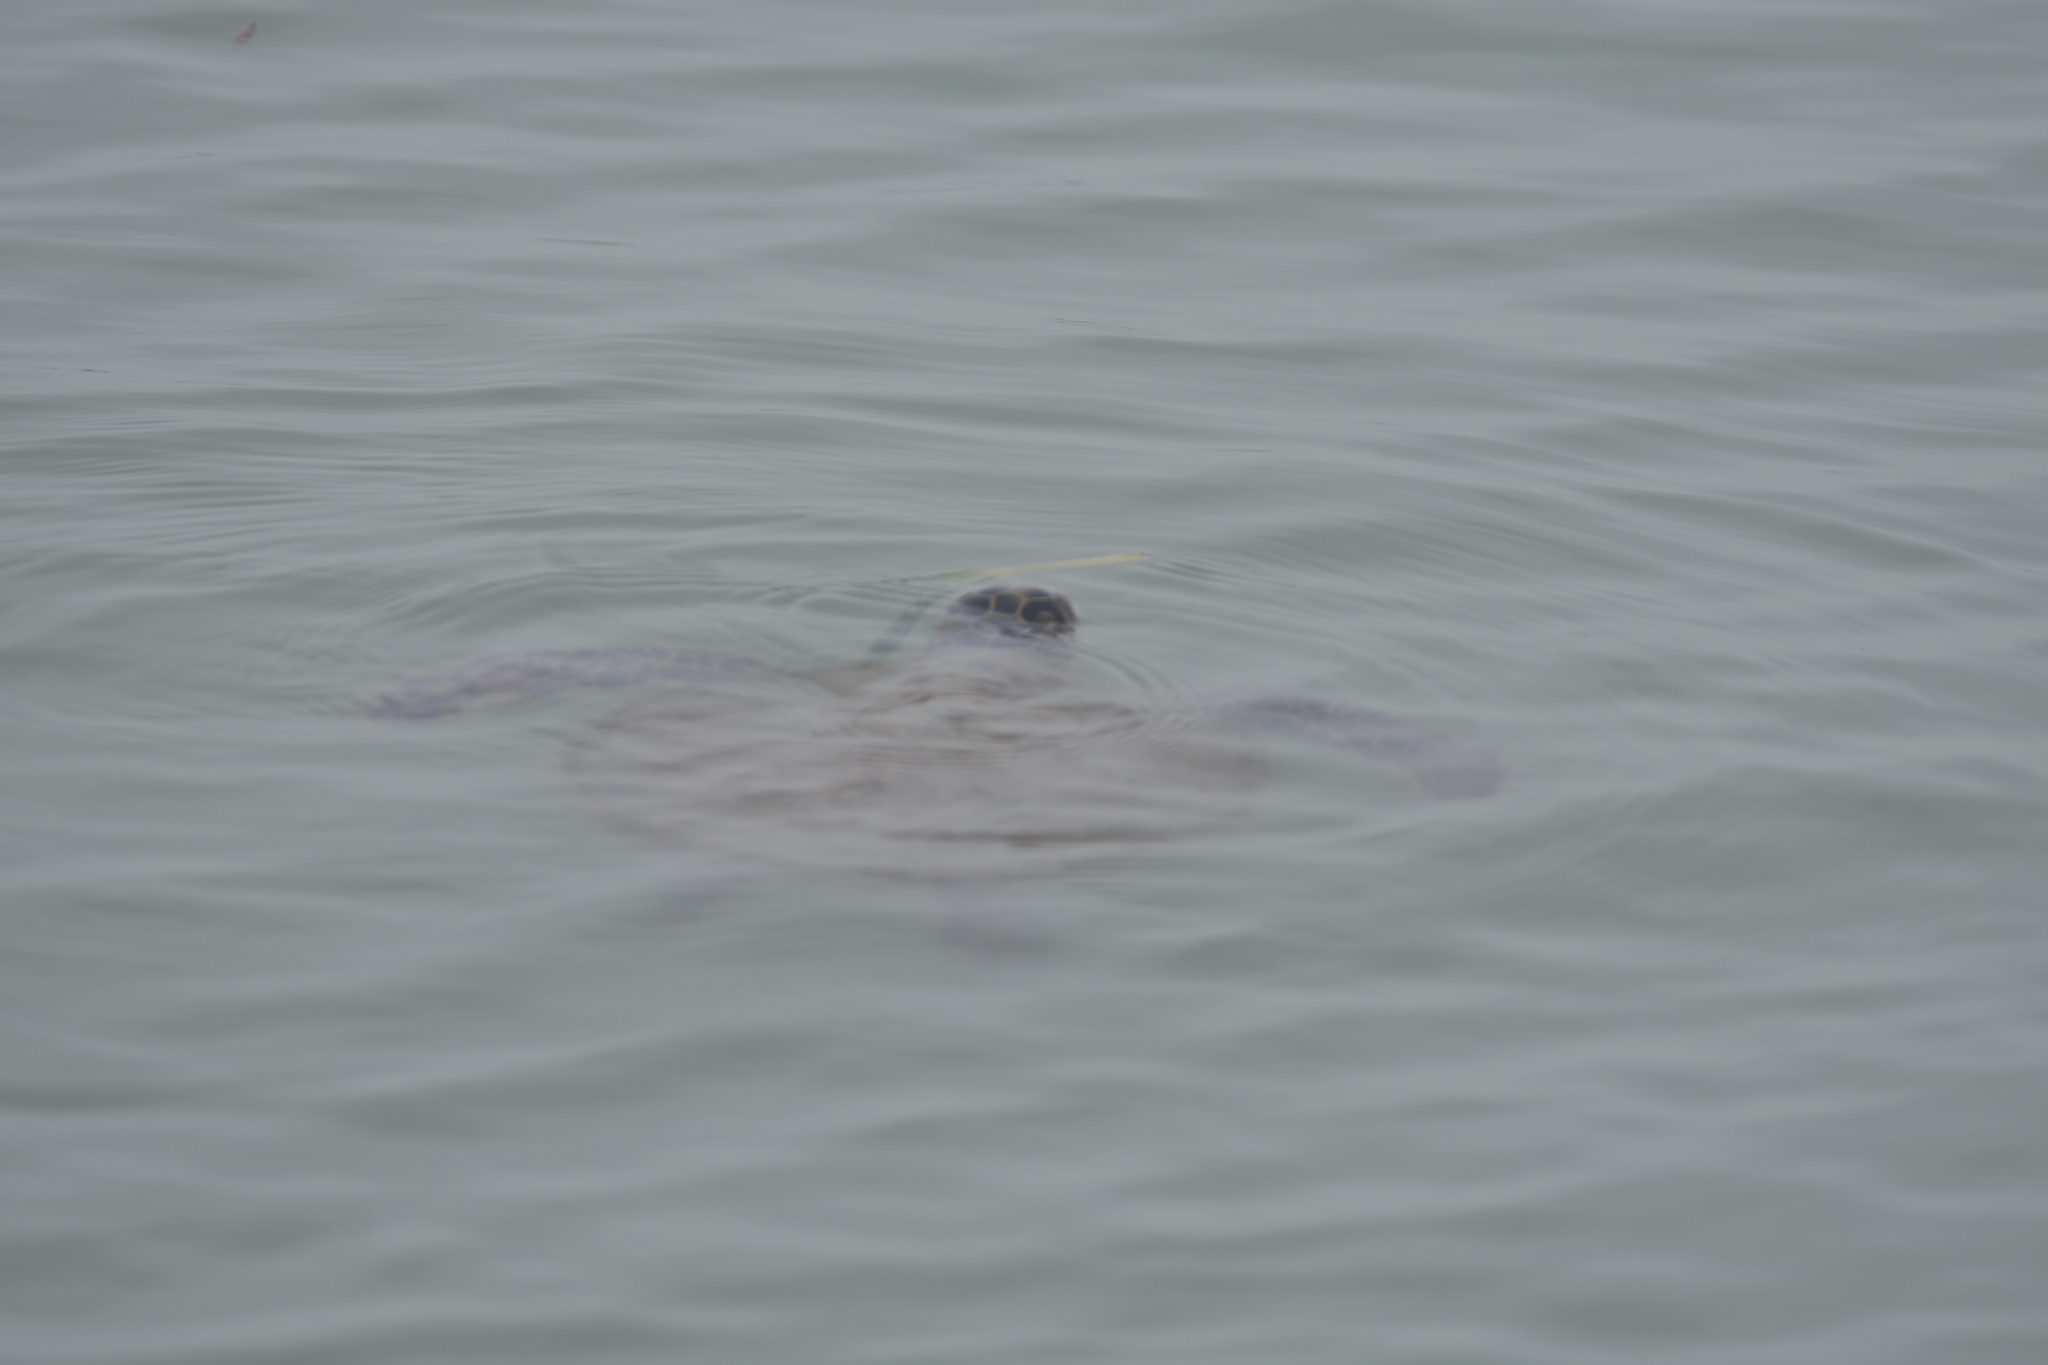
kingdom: Animalia
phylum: Chordata
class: Testudines
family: Cheloniidae
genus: Chelonia
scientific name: Chelonia mydas
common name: Green turtle
